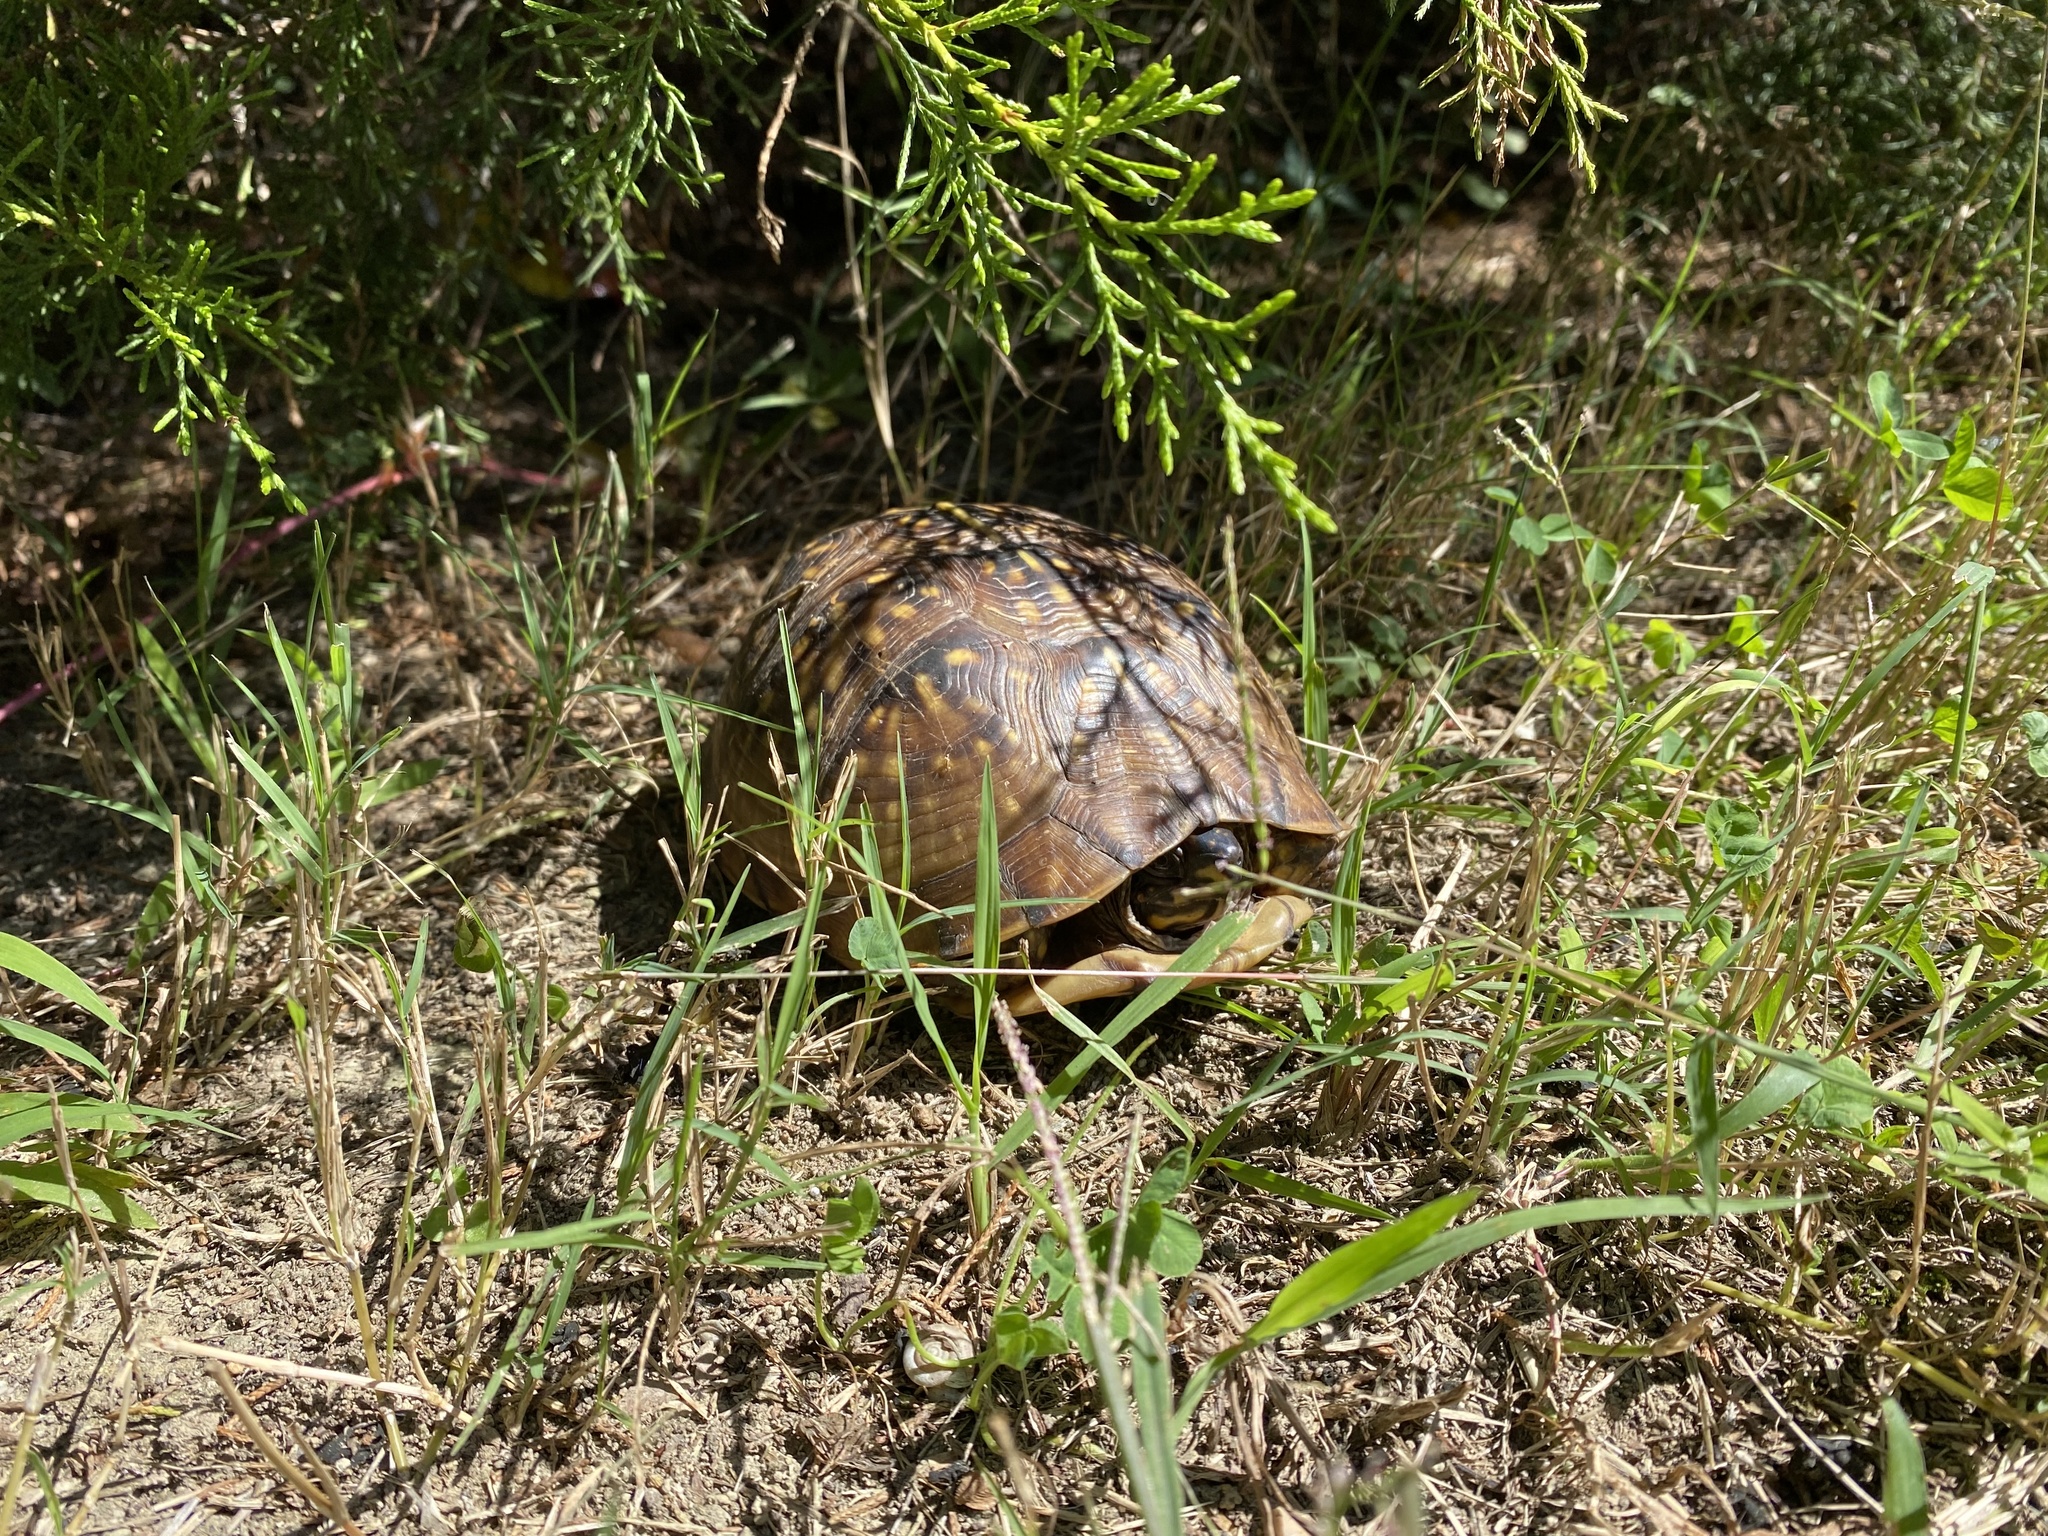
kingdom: Animalia
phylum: Chordata
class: Testudines
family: Emydidae
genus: Terrapene
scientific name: Terrapene carolina
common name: Common box turtle
